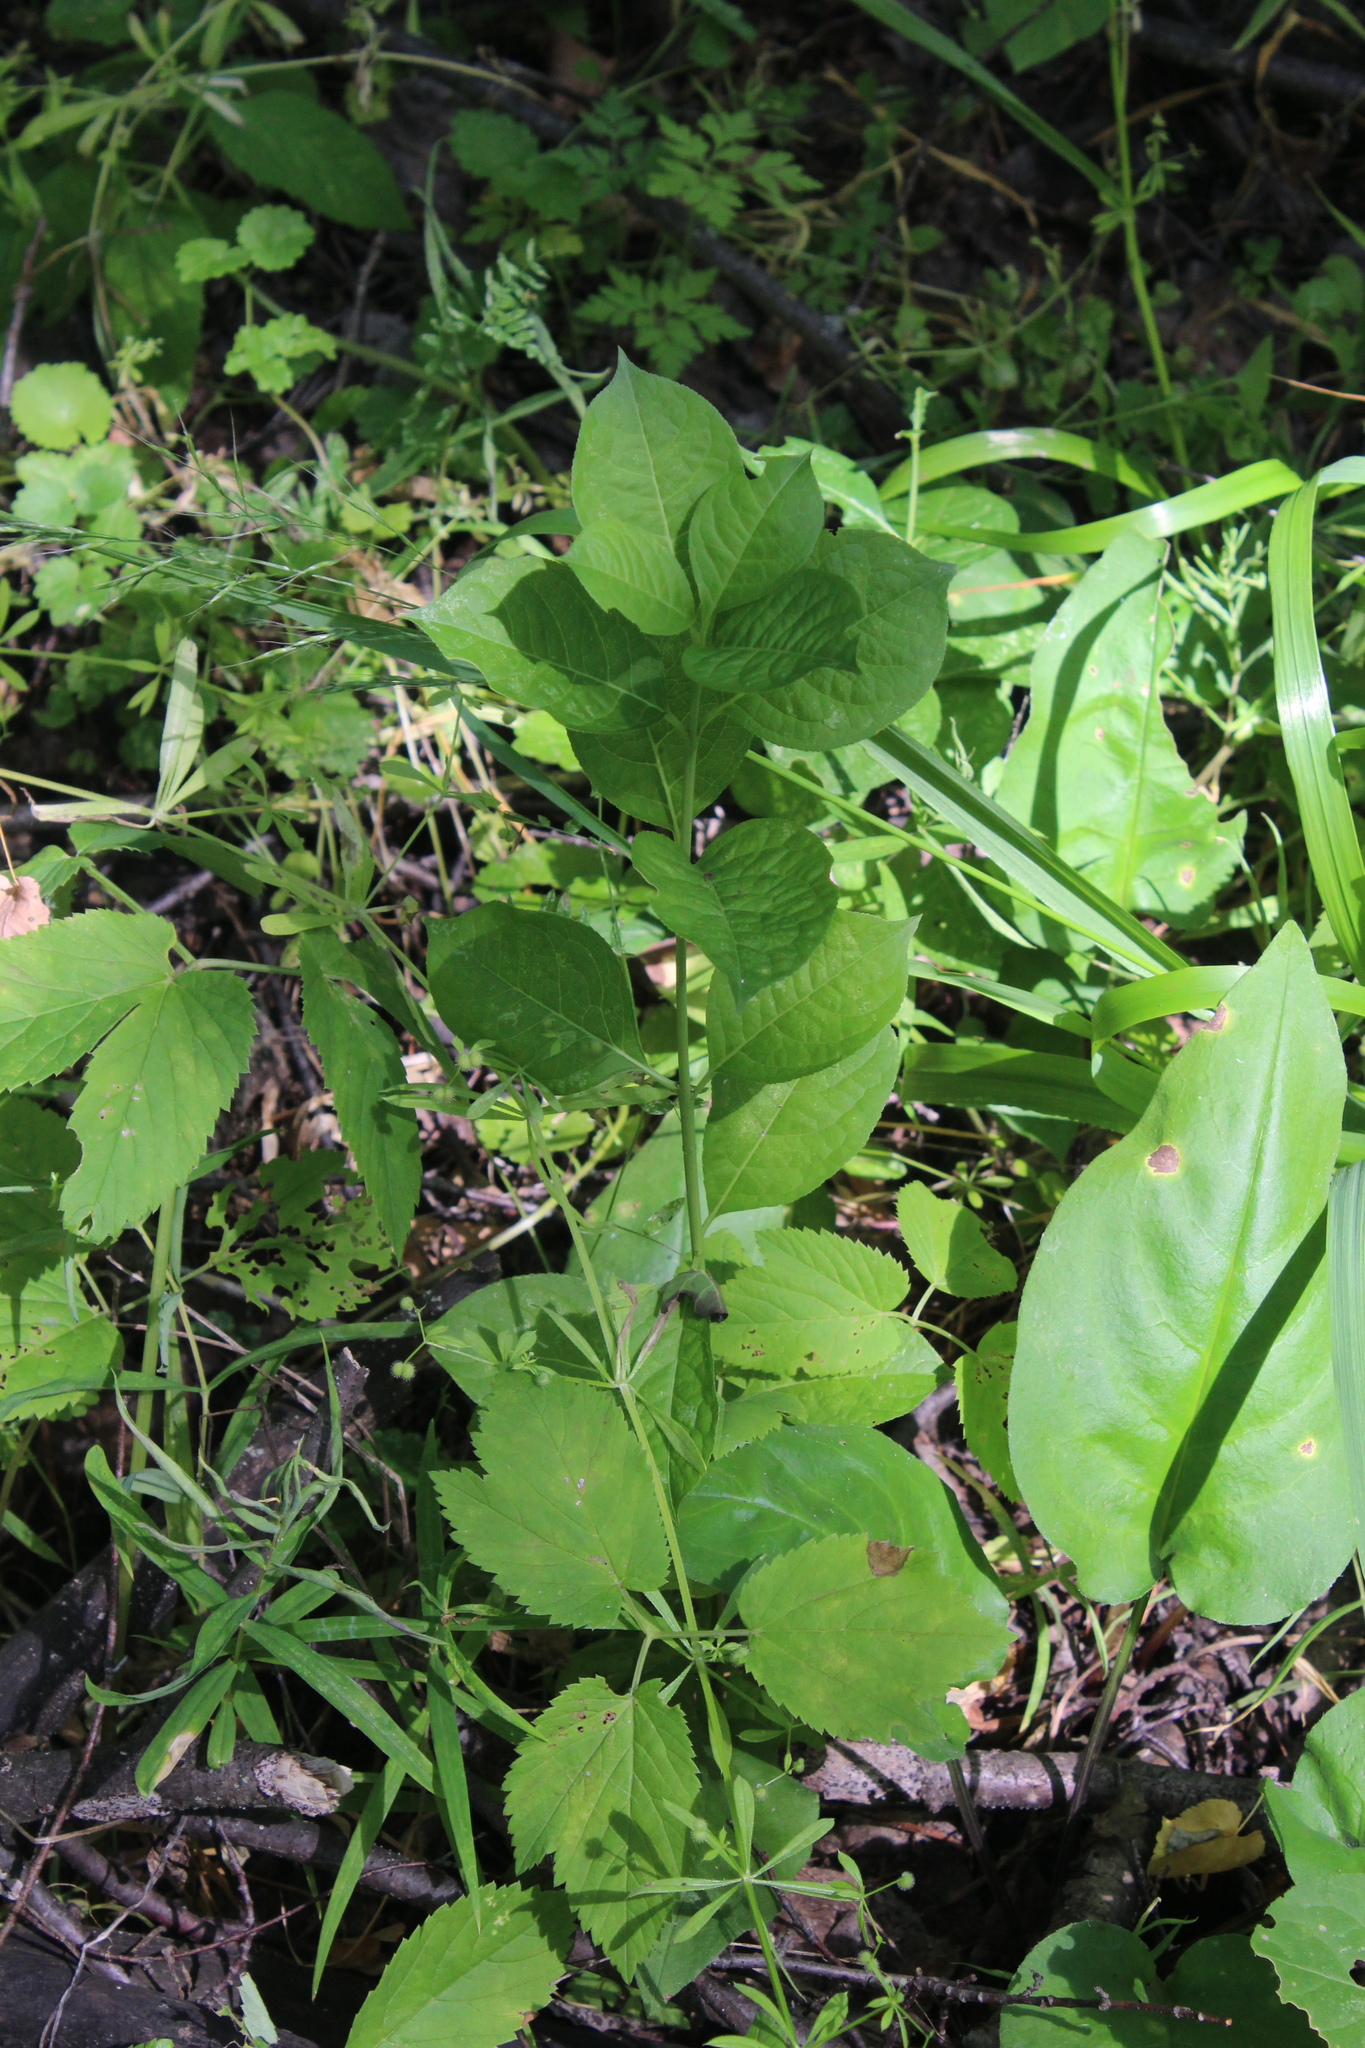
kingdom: Plantae
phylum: Tracheophyta
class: Magnoliopsida
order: Celastrales
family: Celastraceae
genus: Euonymus
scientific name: Euonymus europaeus
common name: Spindle
